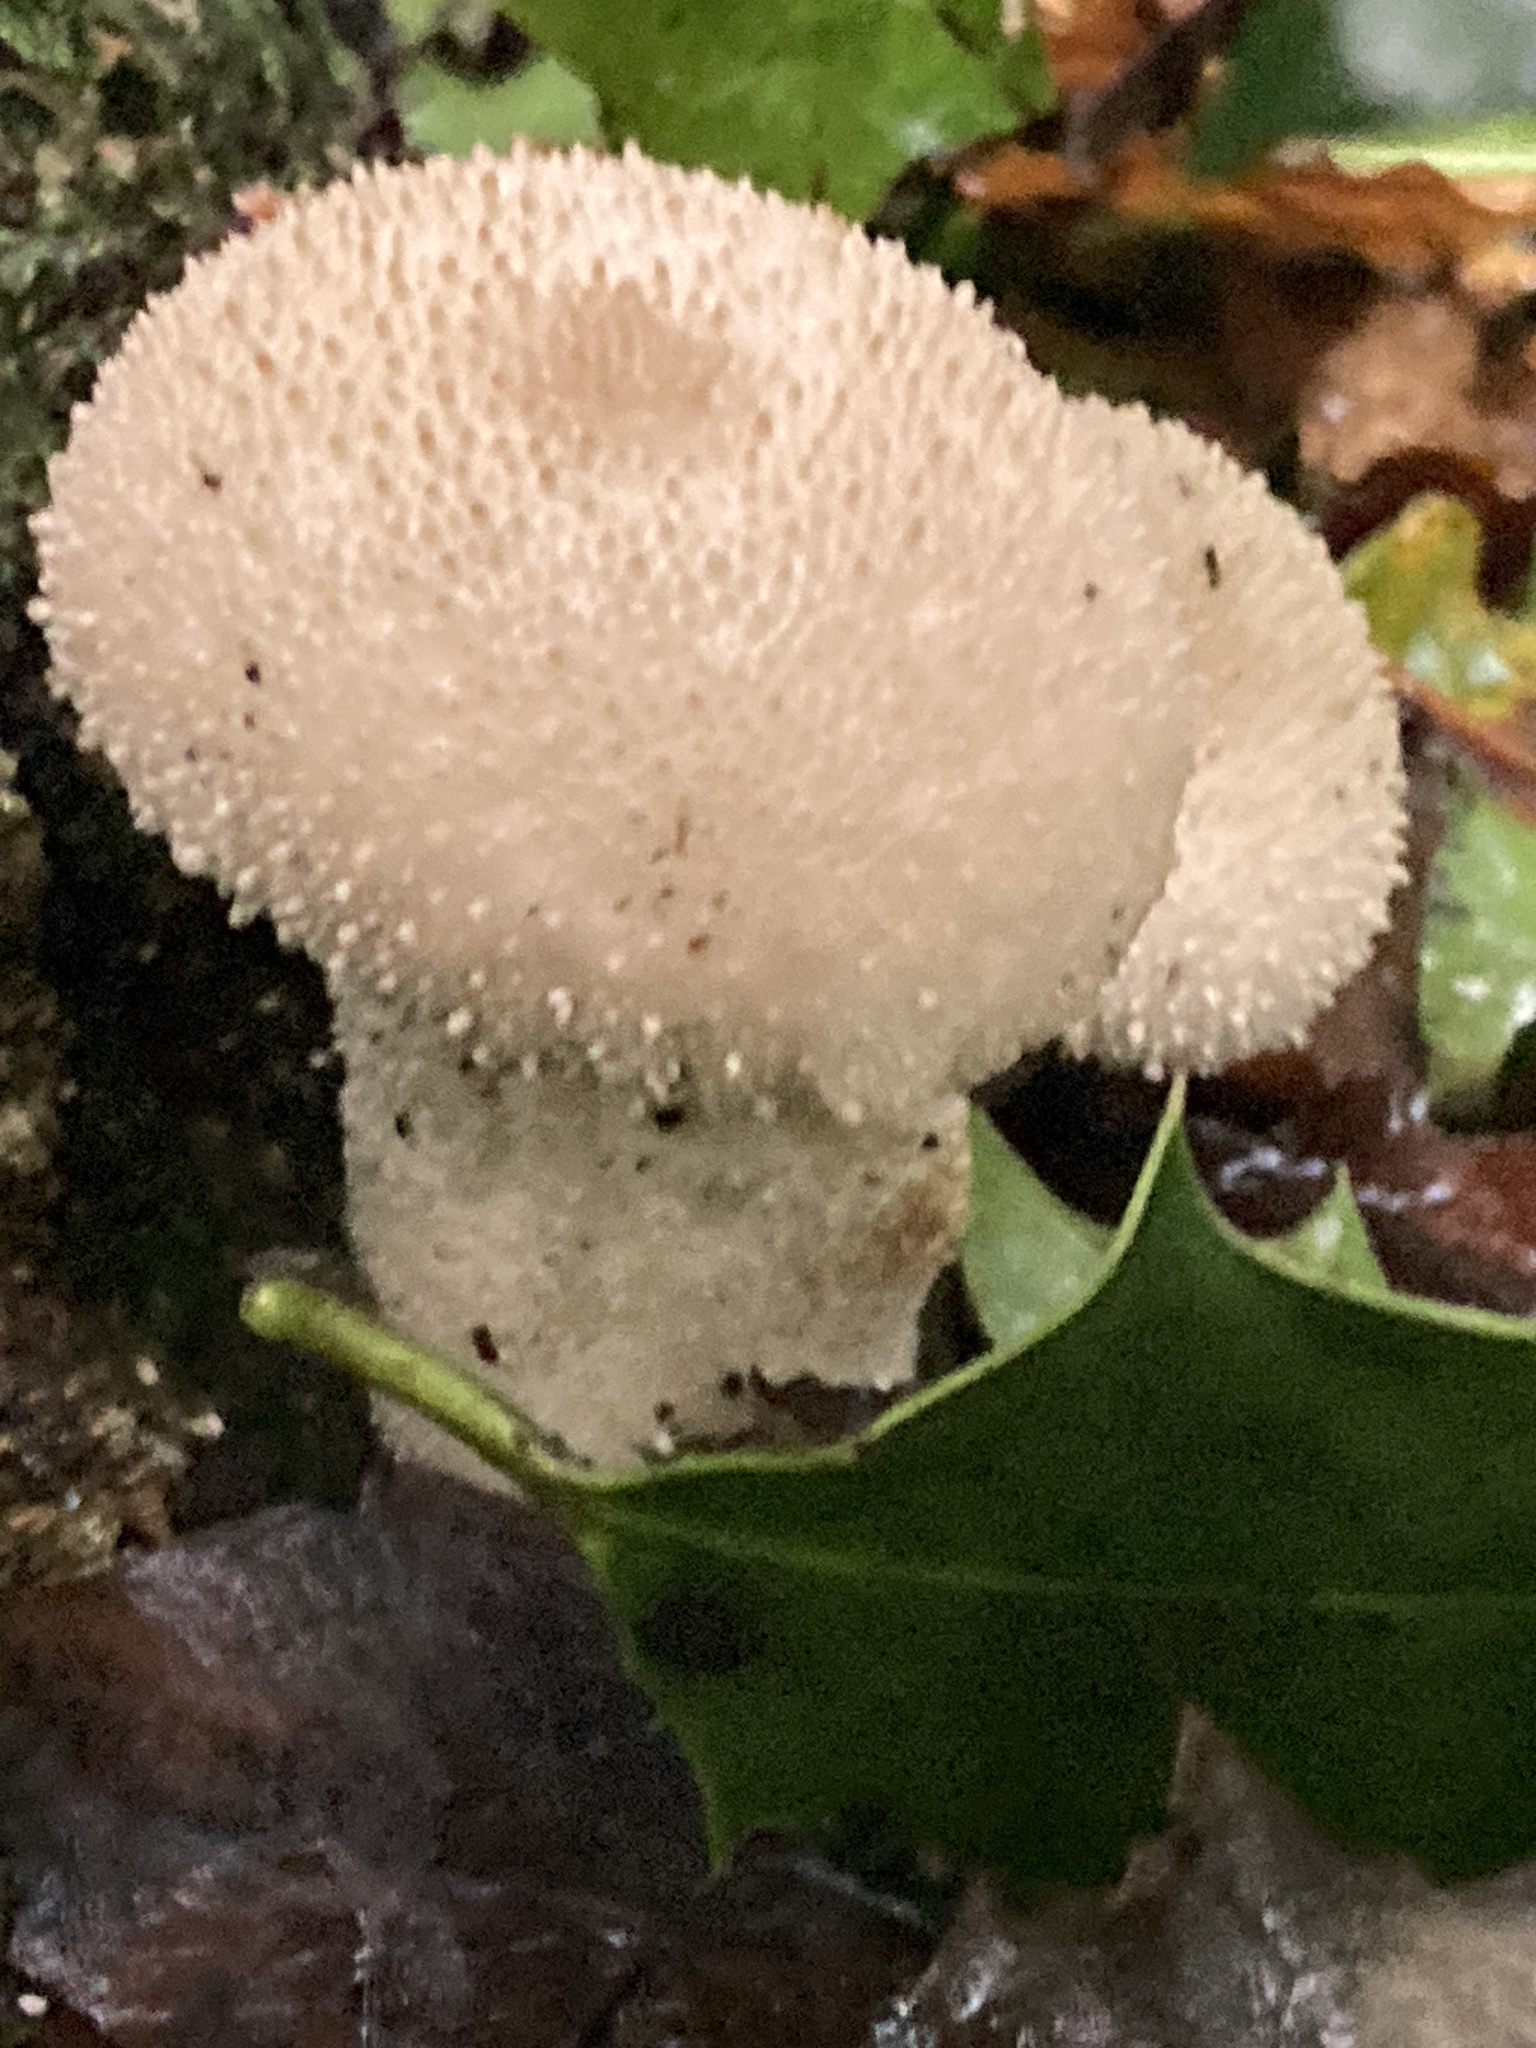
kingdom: Fungi
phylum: Basidiomycota
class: Agaricomycetes
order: Agaricales
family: Lycoperdaceae
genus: Lycoperdon
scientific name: Lycoperdon perlatum
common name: Common puffball
